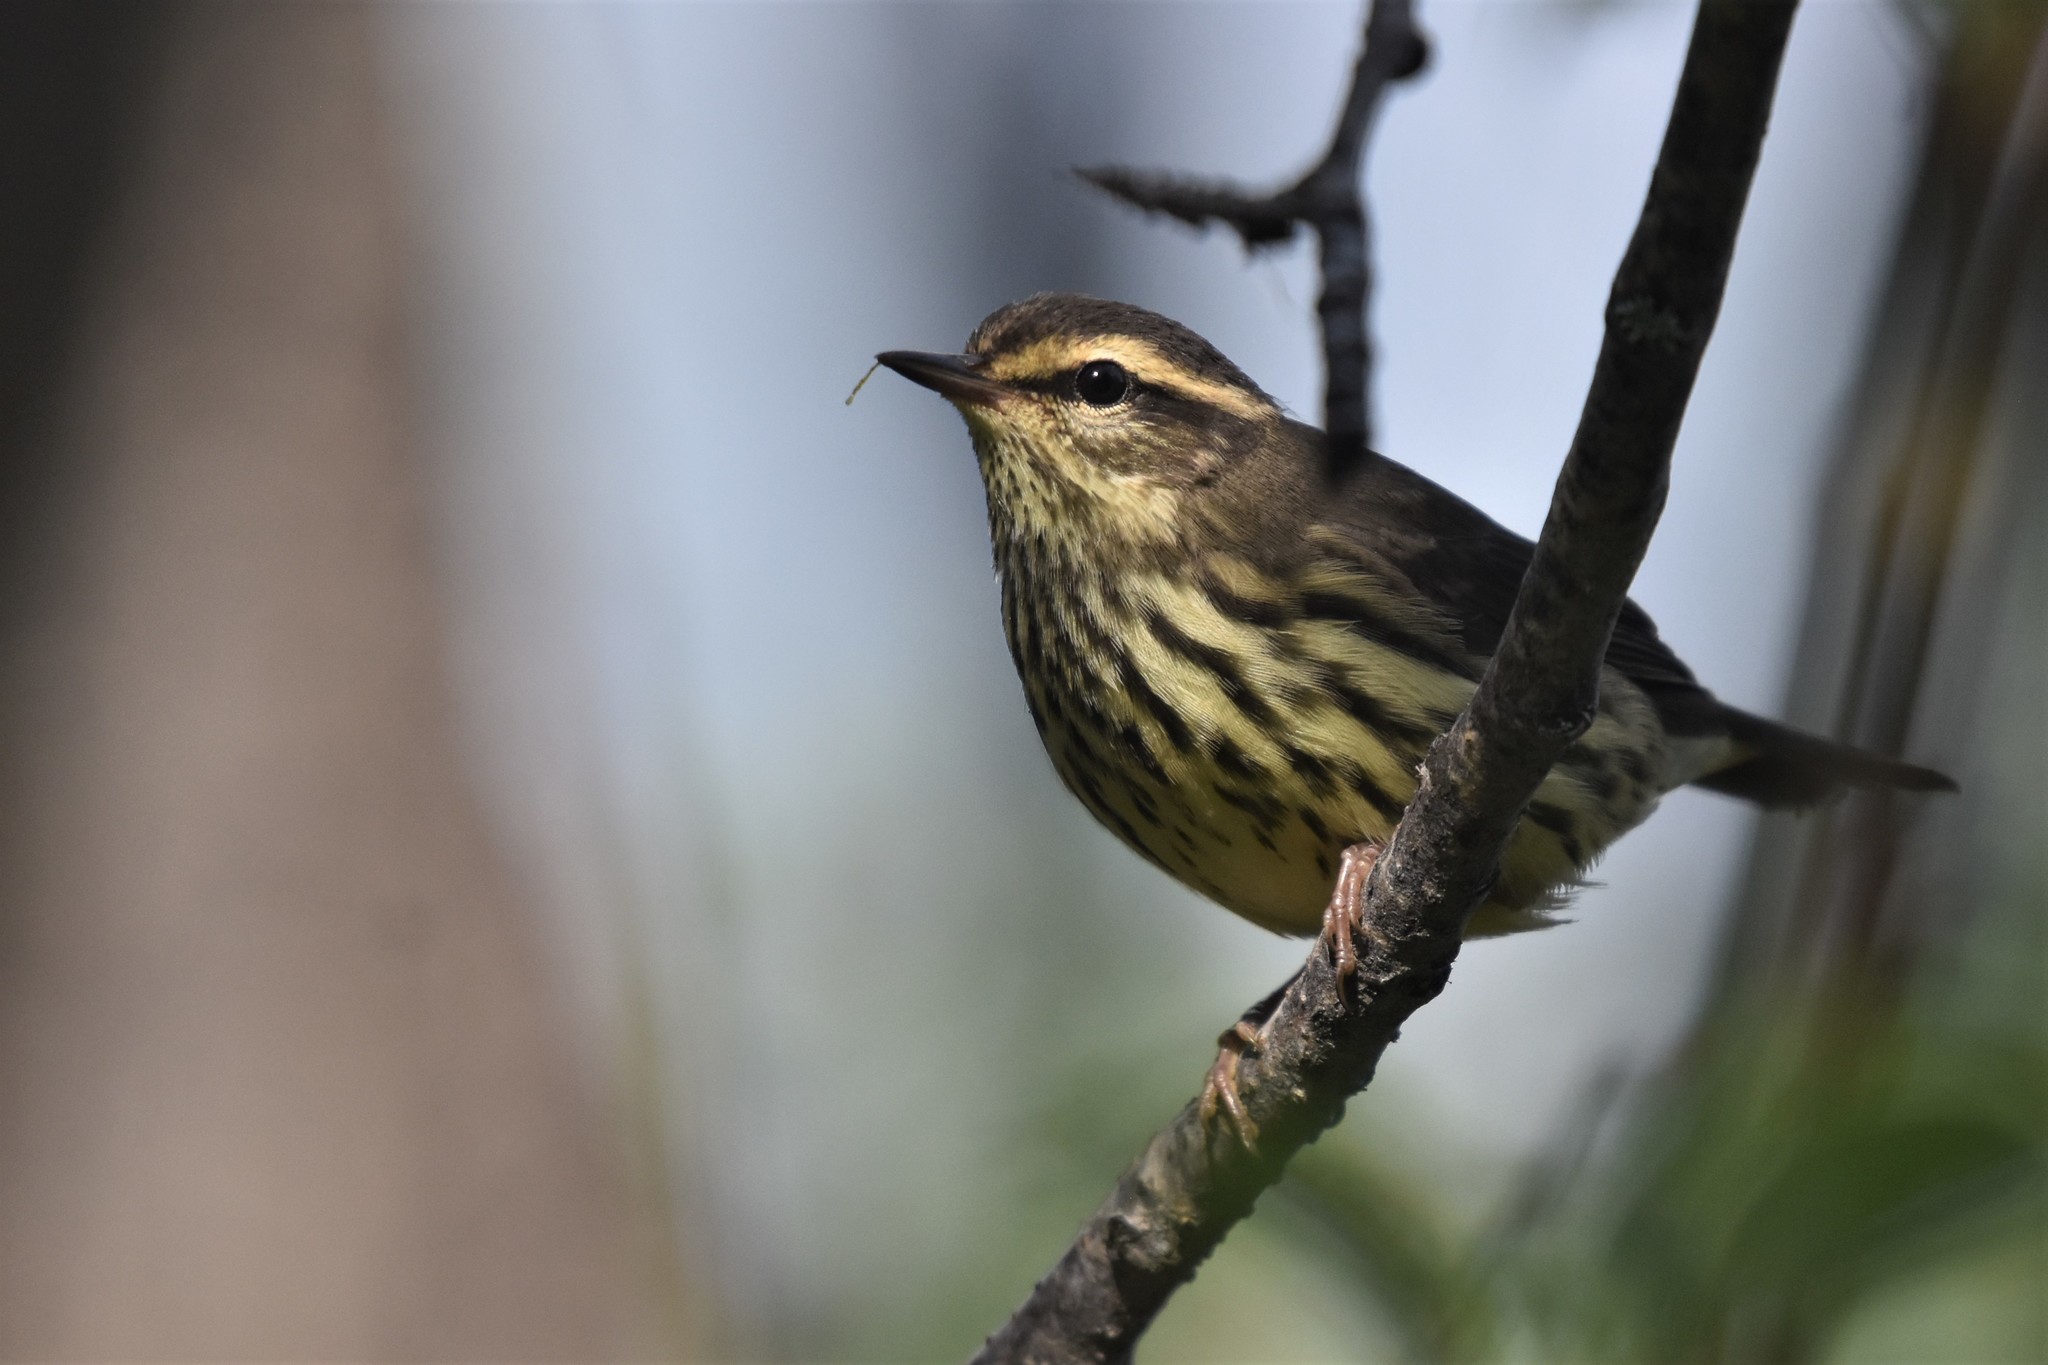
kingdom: Animalia
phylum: Chordata
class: Aves
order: Passeriformes
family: Parulidae
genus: Parkesia
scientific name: Parkesia noveboracensis
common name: Northern waterthrush
